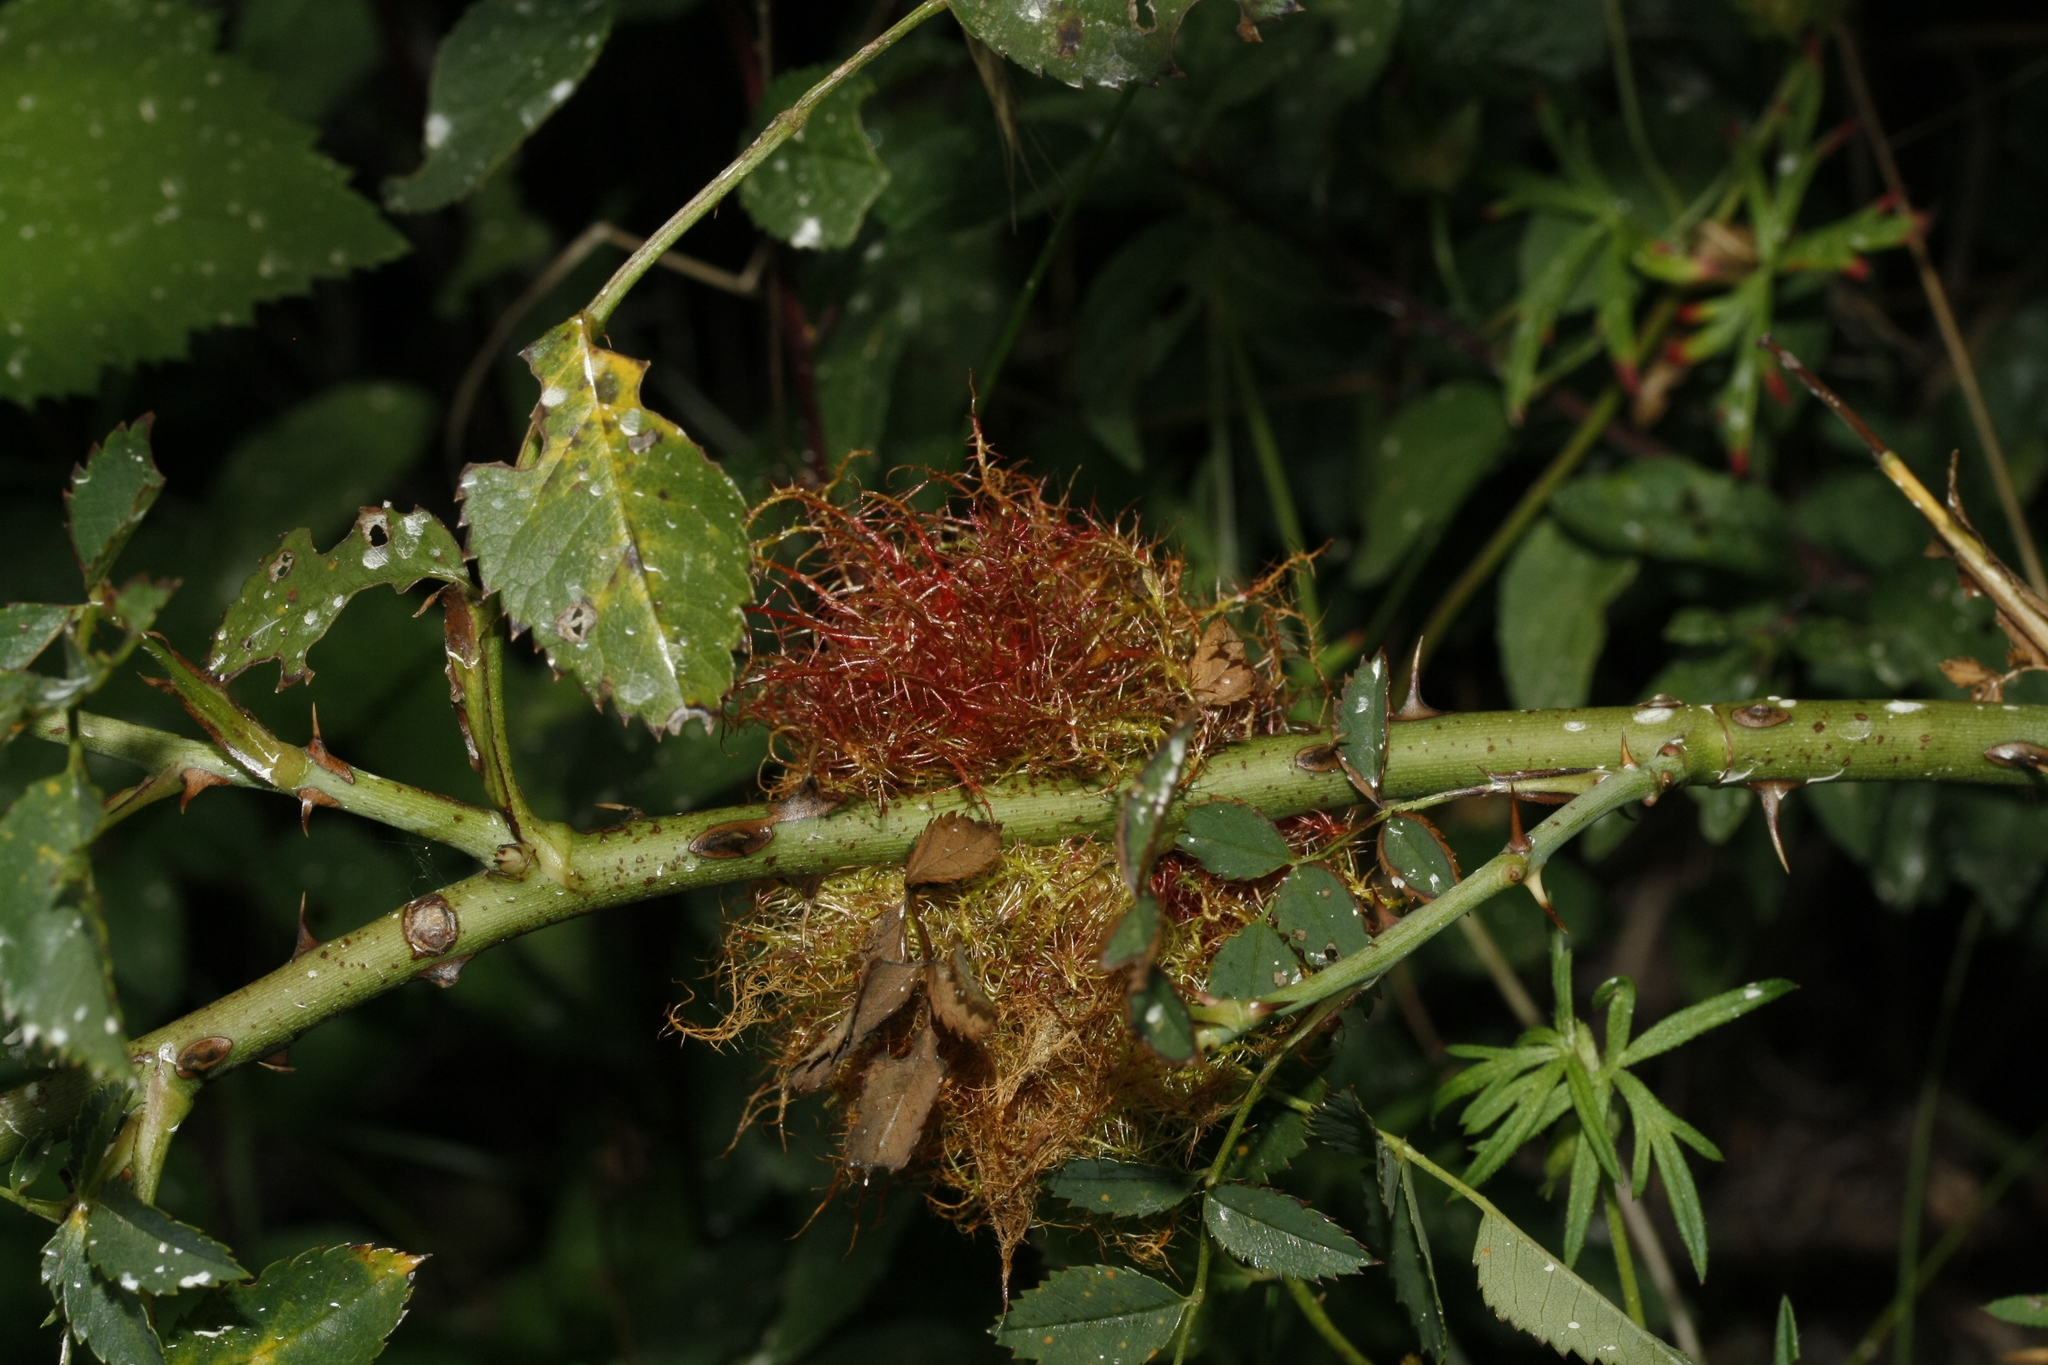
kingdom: Animalia
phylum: Arthropoda
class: Insecta
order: Hymenoptera
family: Cynipidae
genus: Diplolepis
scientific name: Diplolepis rosae
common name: Bedeguar gall
